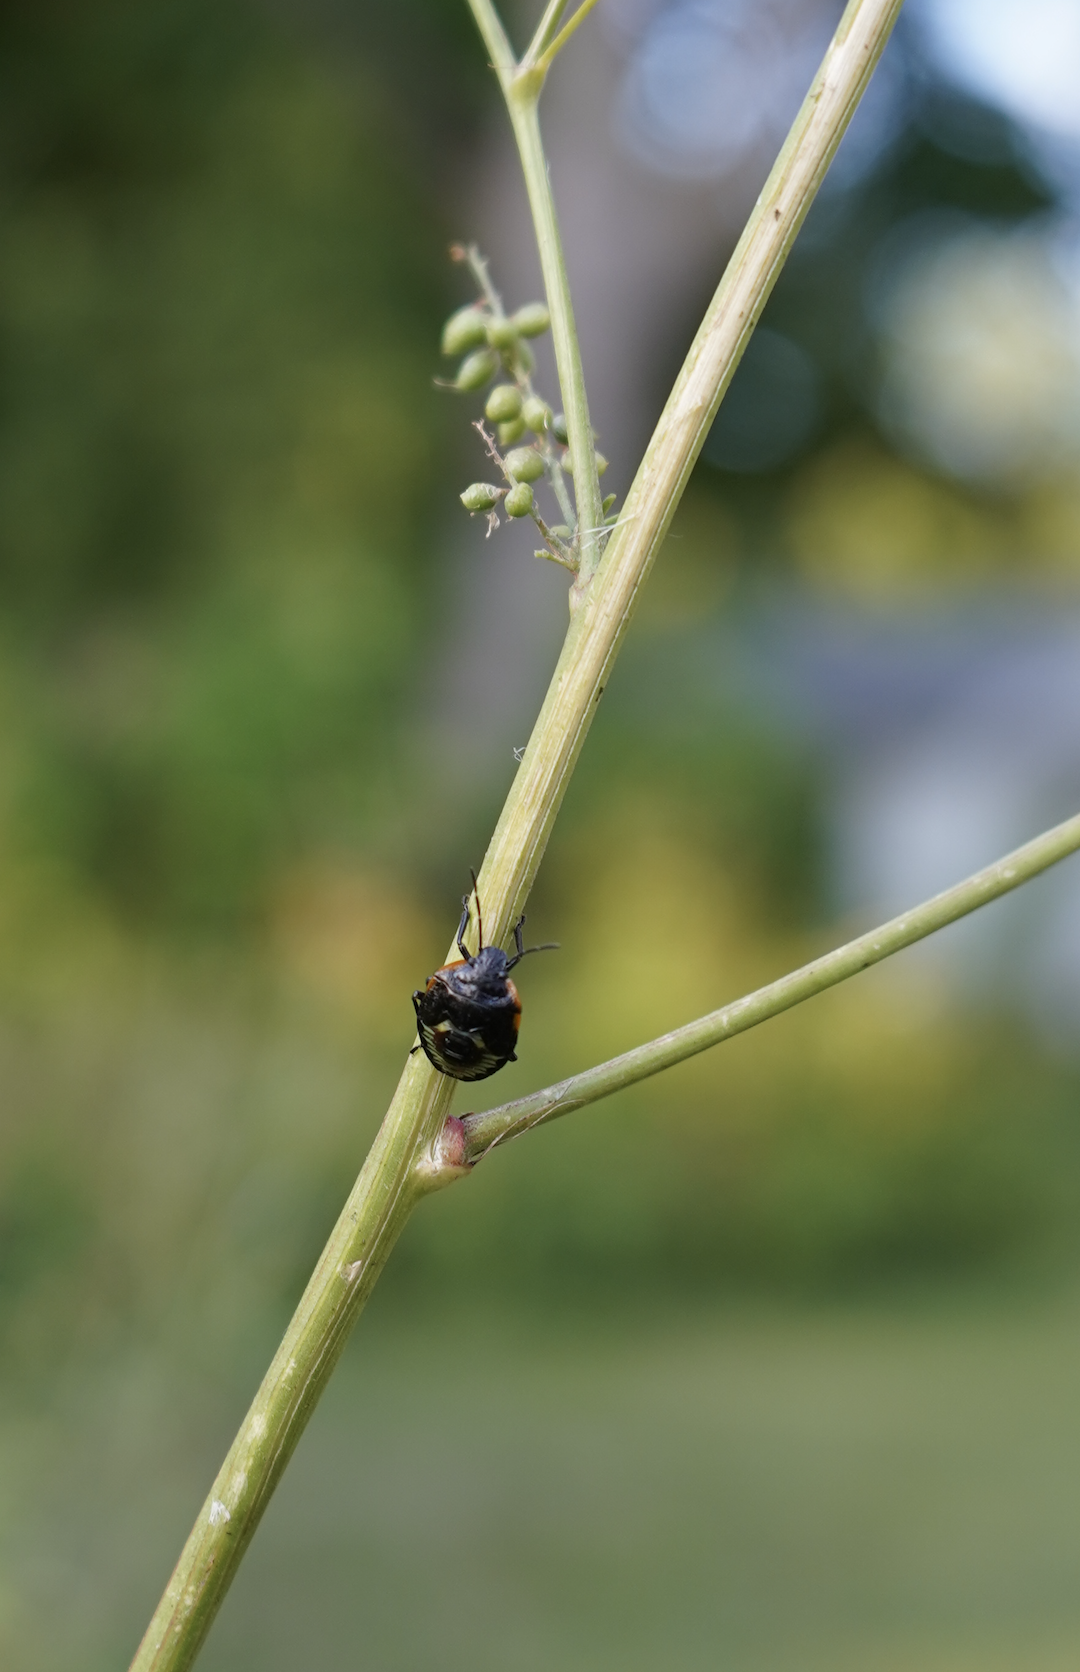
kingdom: Animalia
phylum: Arthropoda
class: Insecta
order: Hemiptera
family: Pentatomidae
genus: Chinavia
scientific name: Chinavia hilaris
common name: Green stink bug
